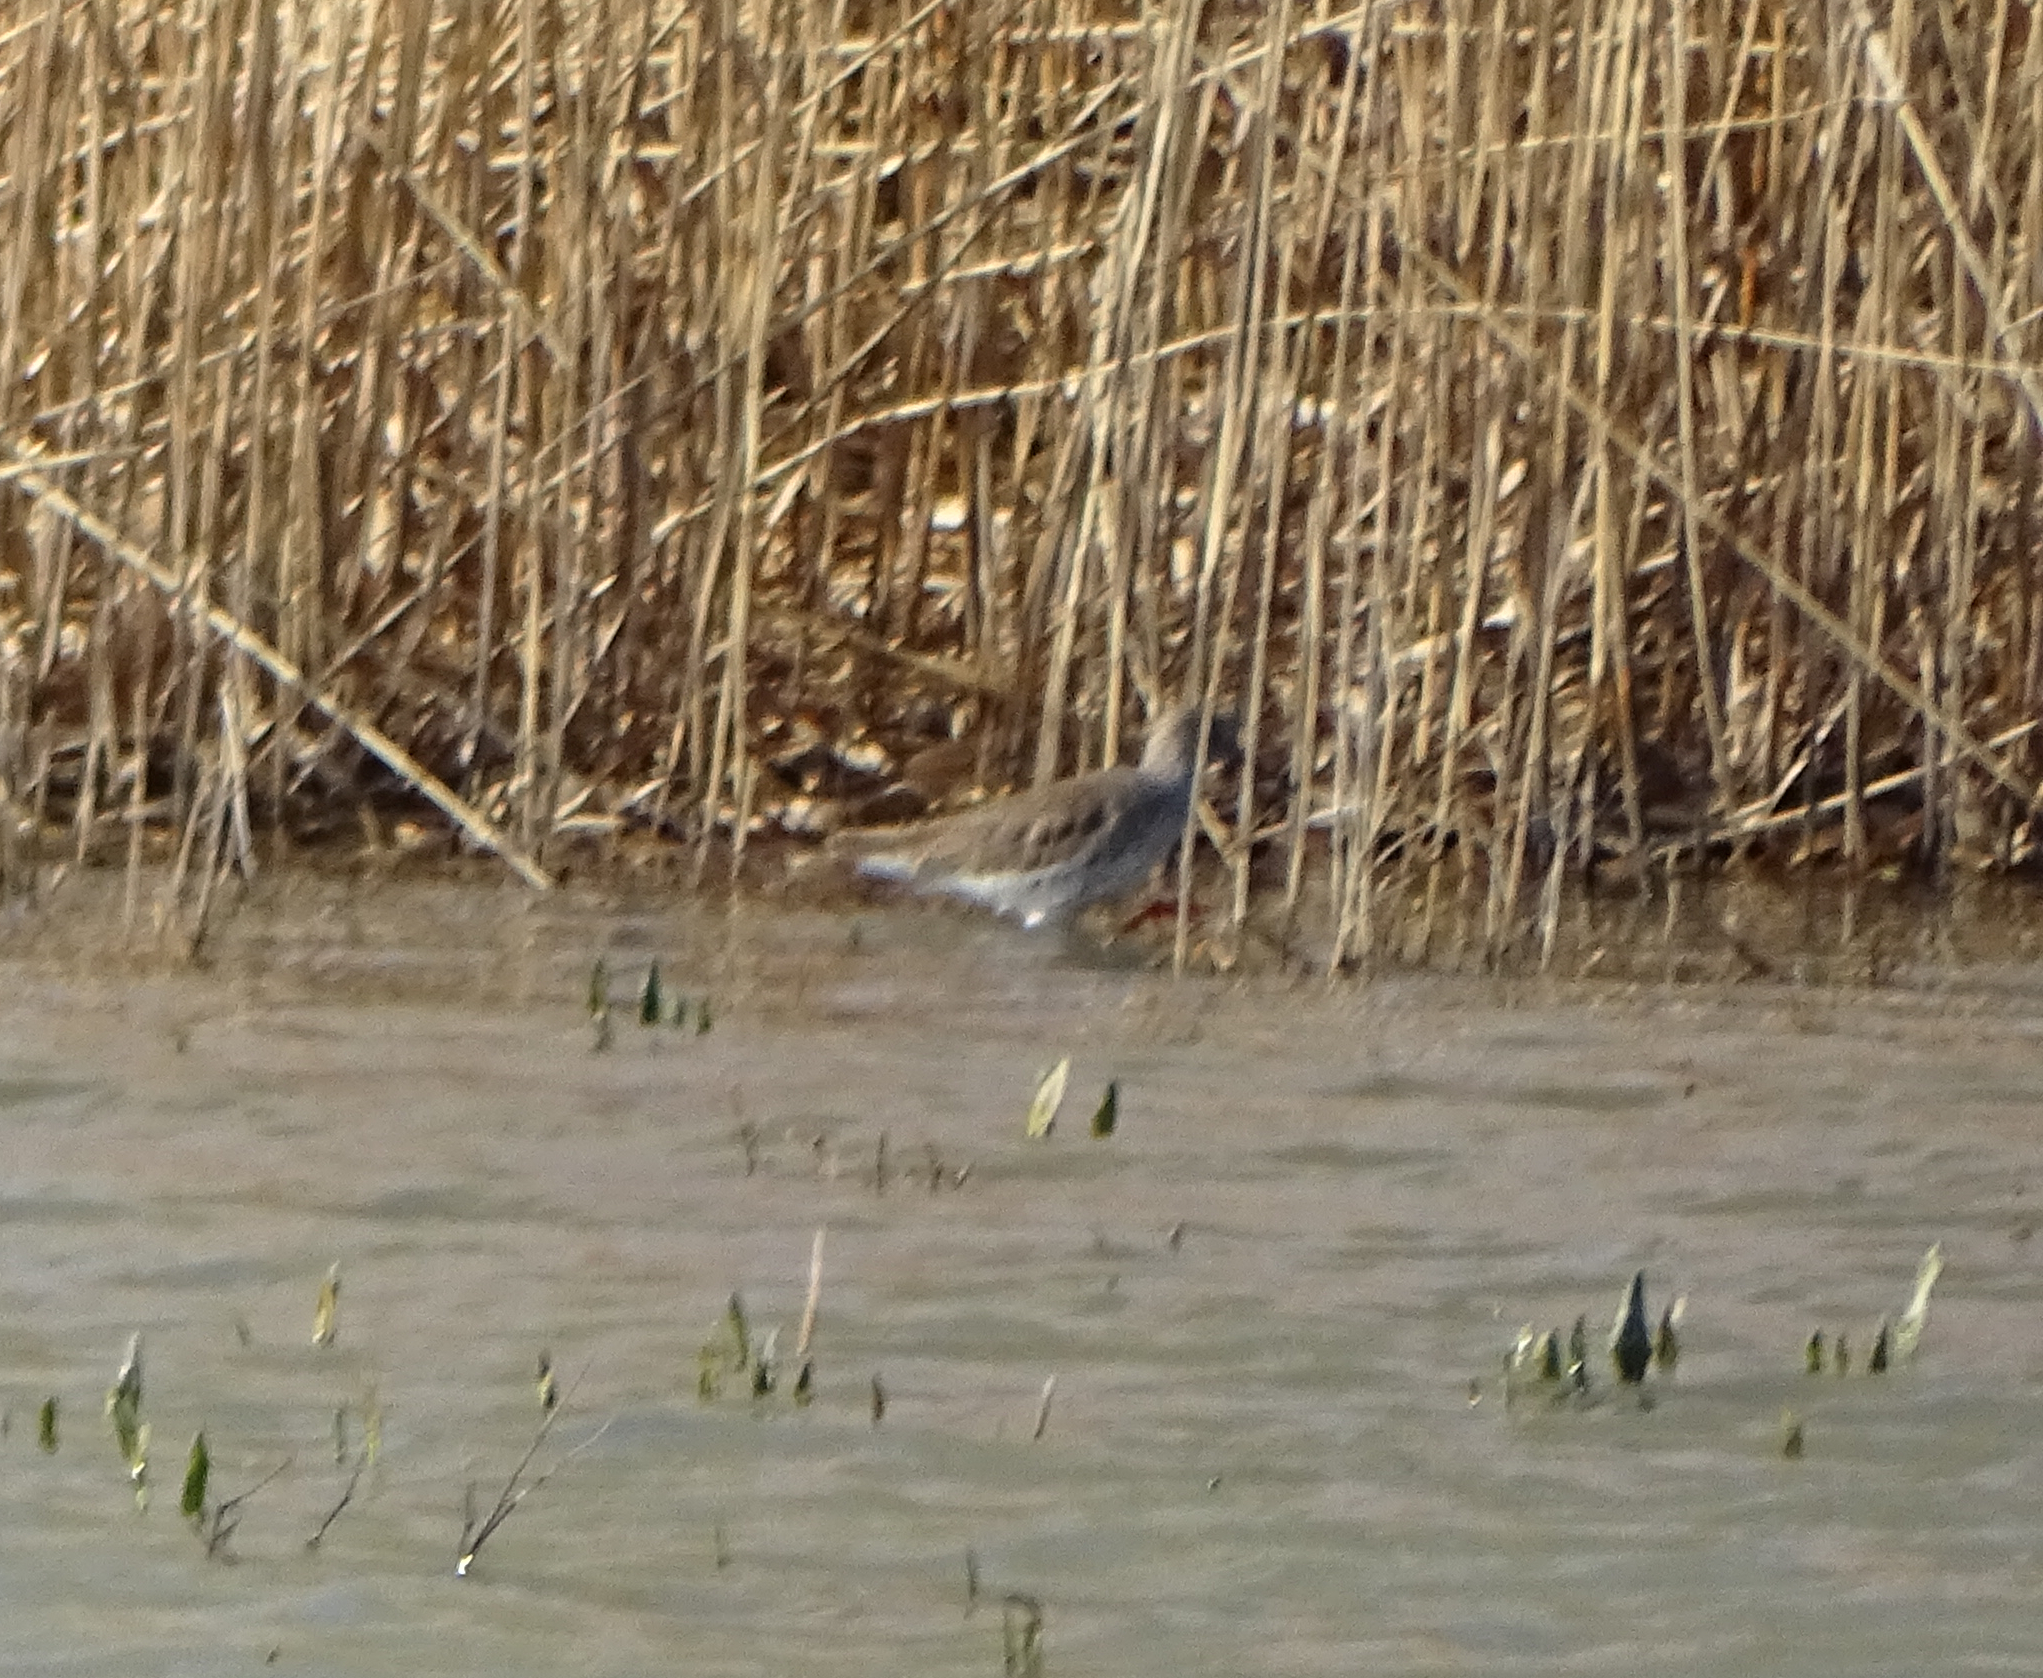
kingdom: Animalia
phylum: Chordata
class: Aves
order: Charadriiformes
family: Scolopacidae
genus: Tringa
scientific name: Tringa totanus
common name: Common redshank
